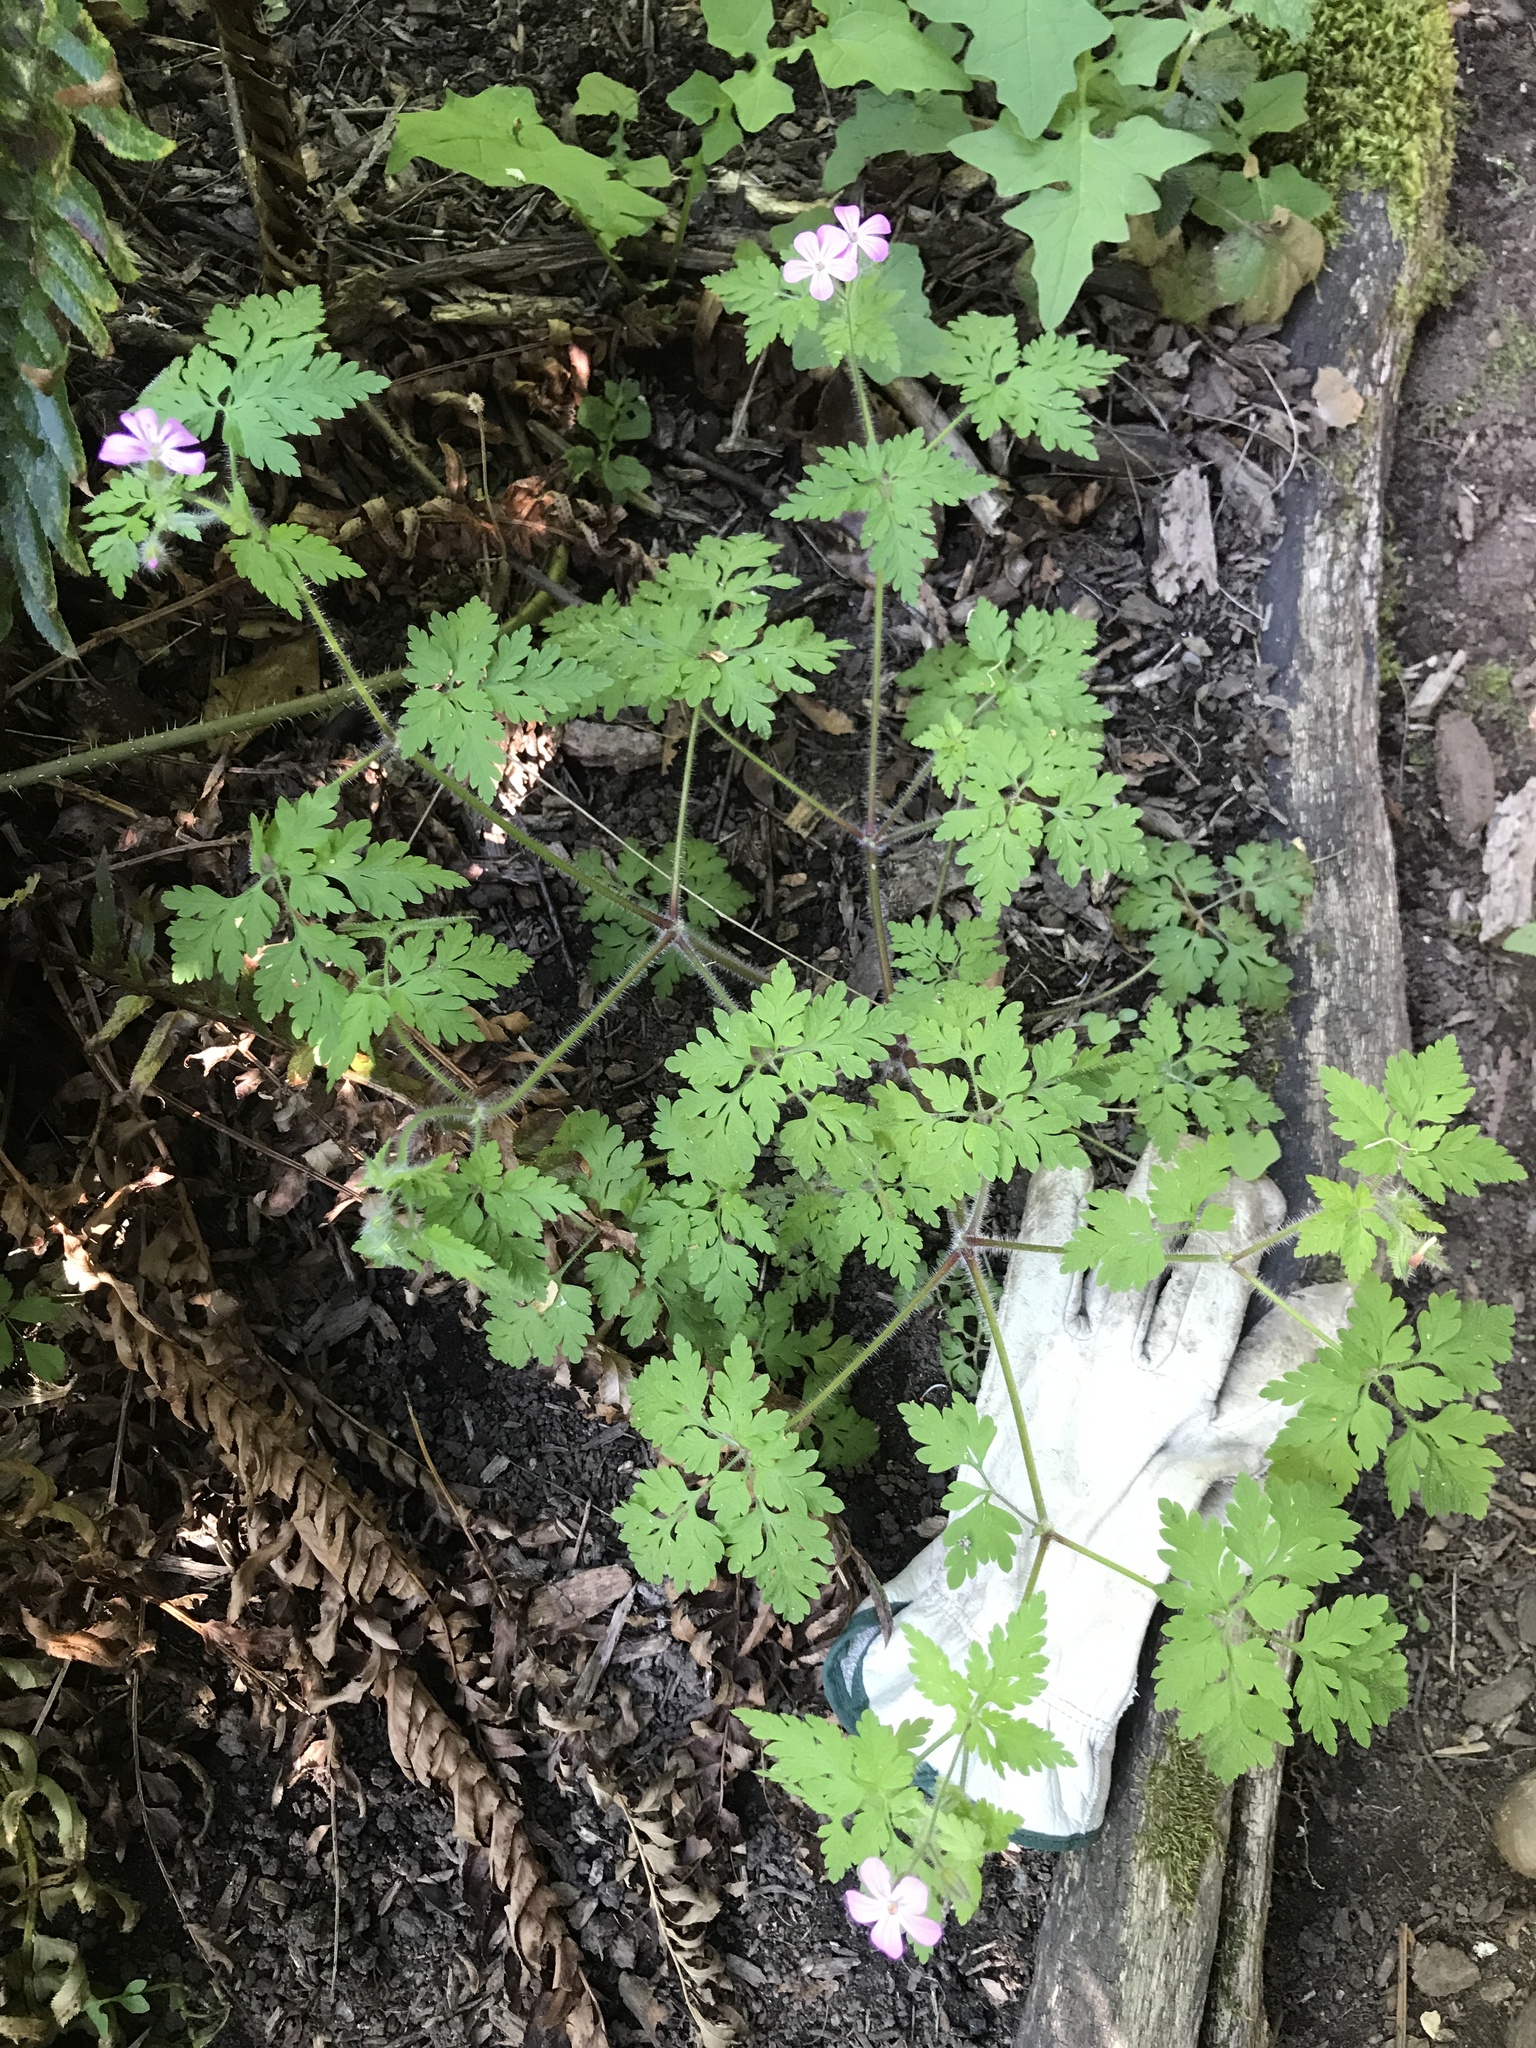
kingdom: Plantae
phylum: Tracheophyta
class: Magnoliopsida
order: Geraniales
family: Geraniaceae
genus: Geranium
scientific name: Geranium robertianum
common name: Herb-robert
